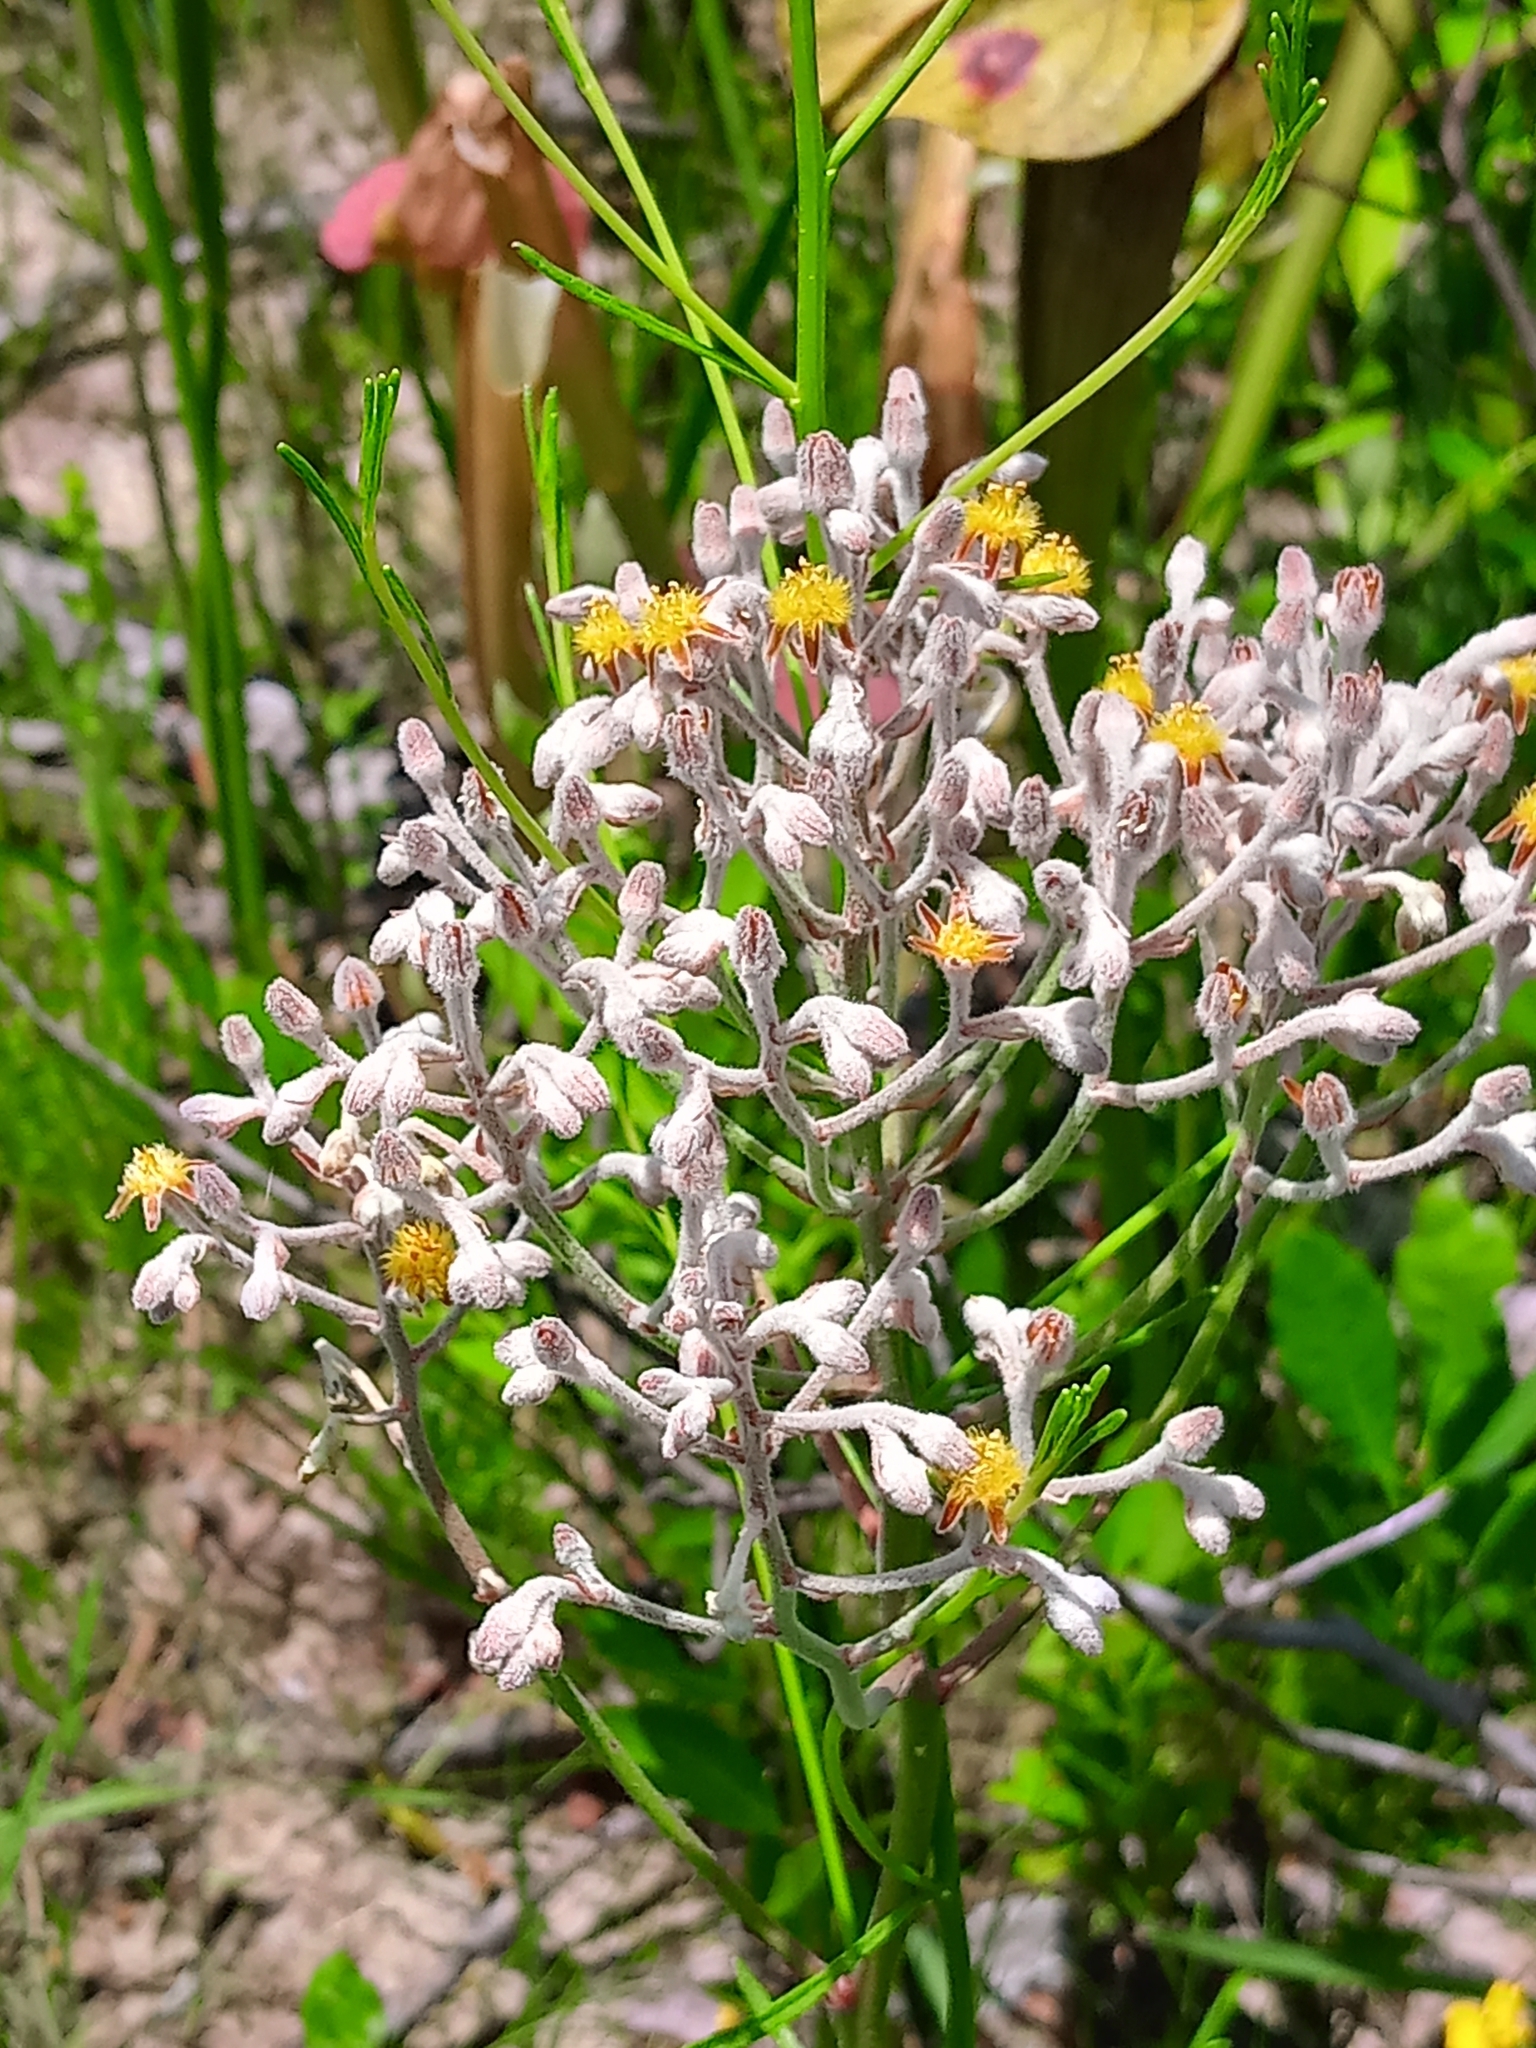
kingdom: Plantae
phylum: Tracheophyta
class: Liliopsida
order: Dioscoreales
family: Nartheciaceae
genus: Lophiola
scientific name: Lophiola aurea
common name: Golden-crest
